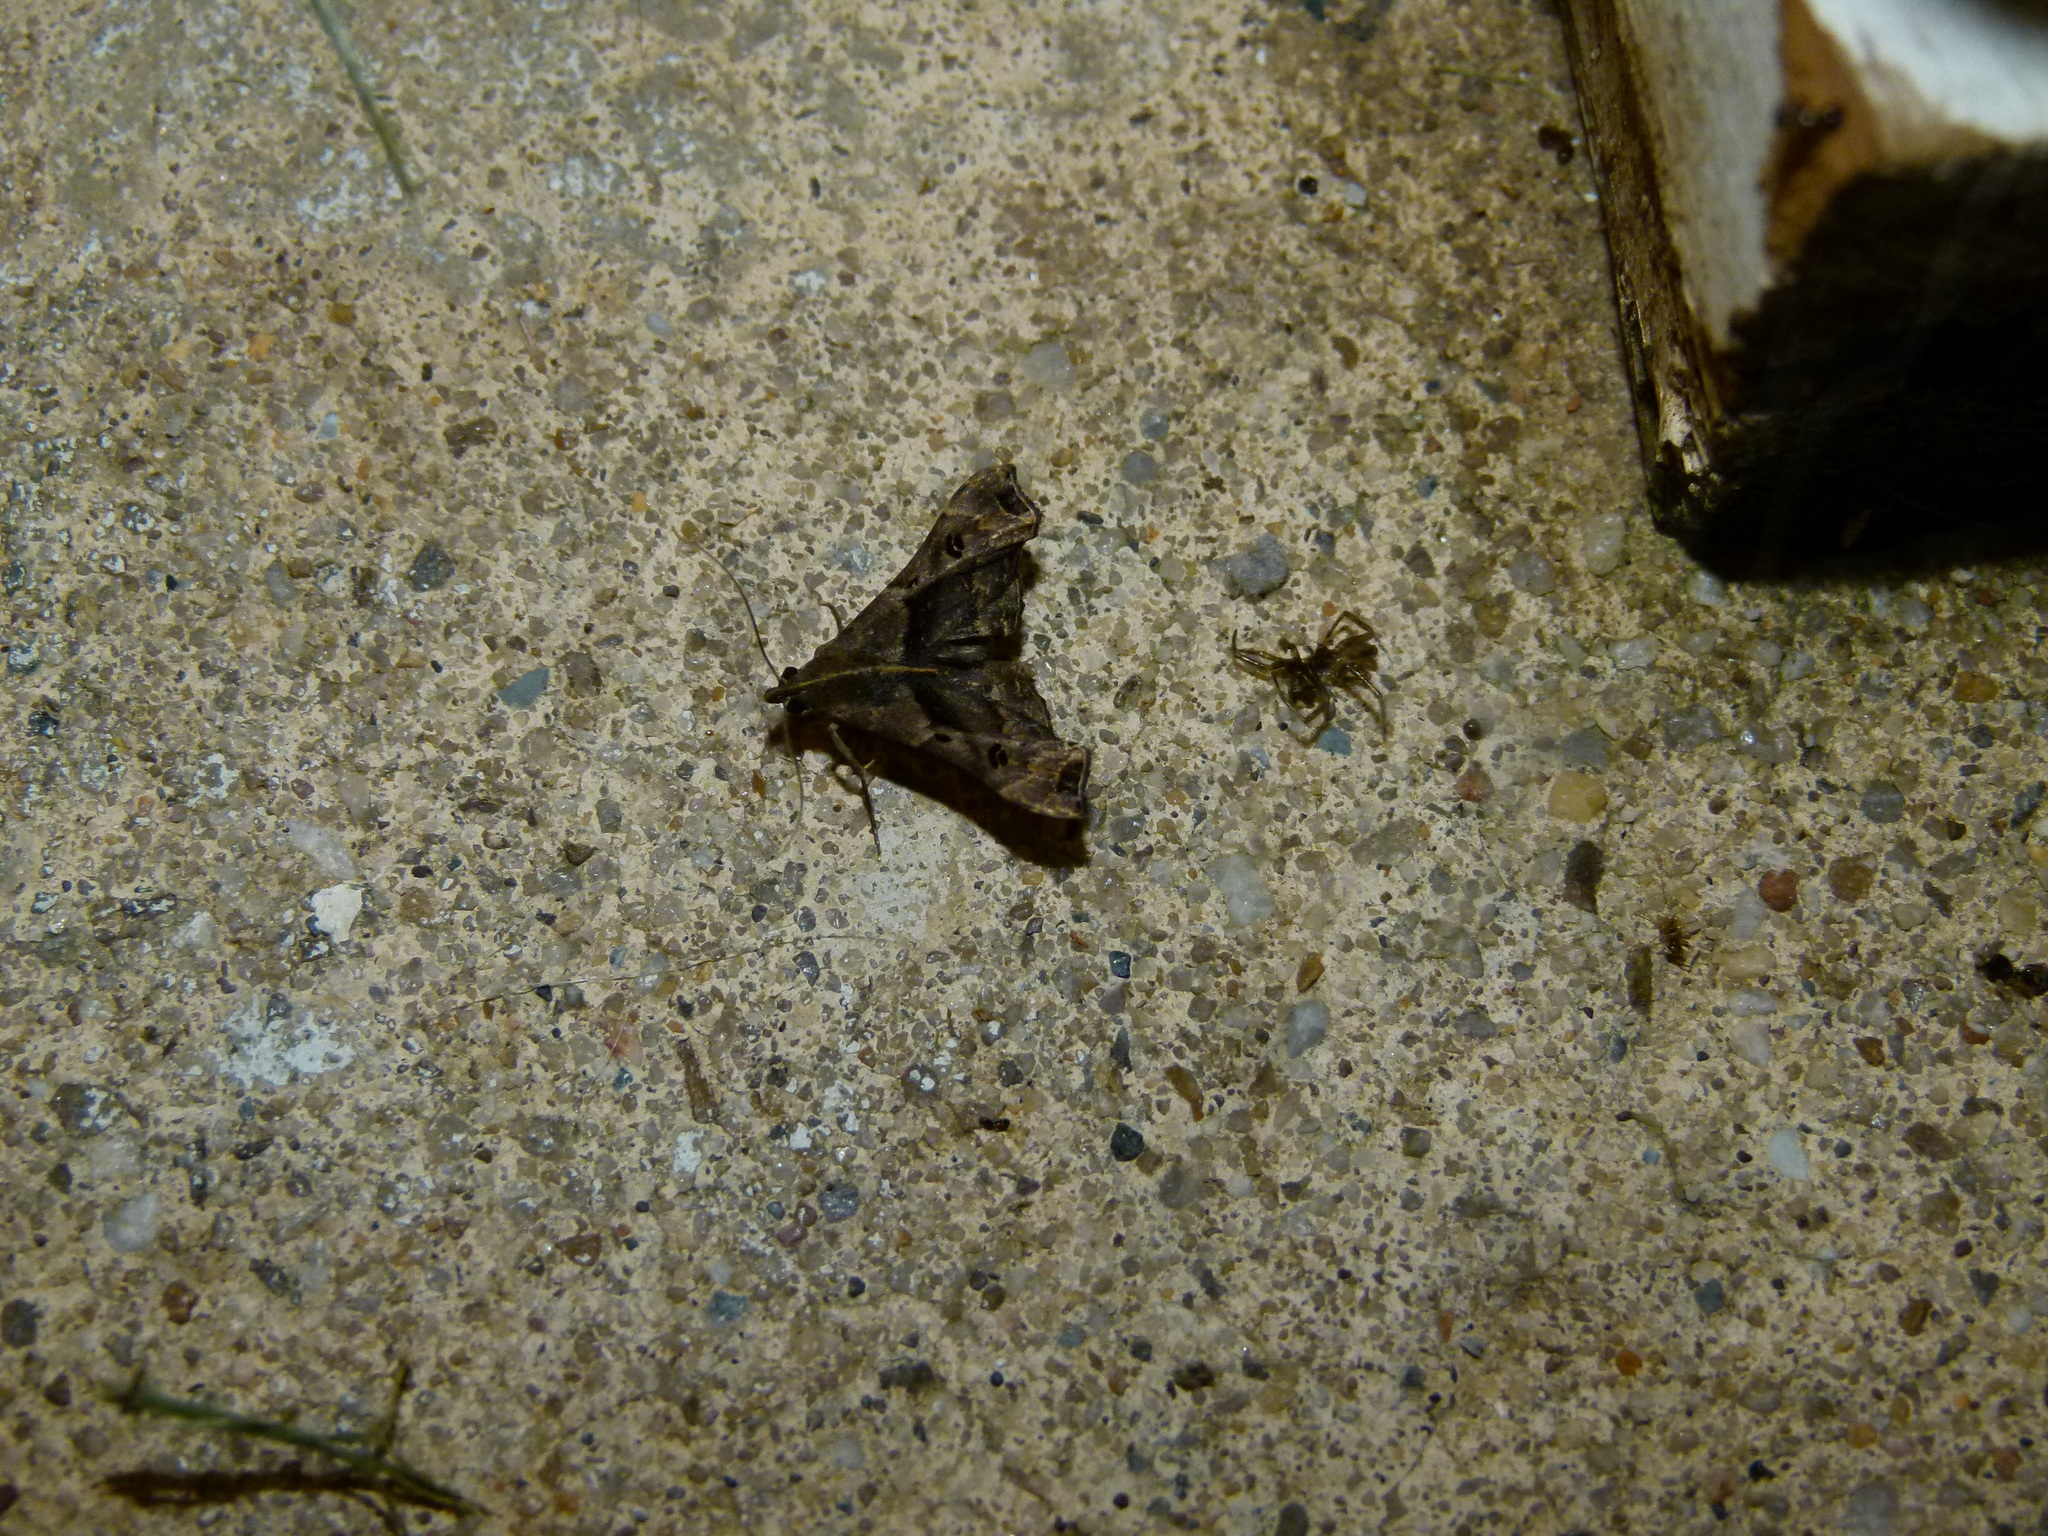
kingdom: Animalia
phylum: Arthropoda
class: Insecta
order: Lepidoptera
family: Erebidae
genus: Palthis
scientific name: Palthis asopialis
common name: Faint-spotted palthis moth
